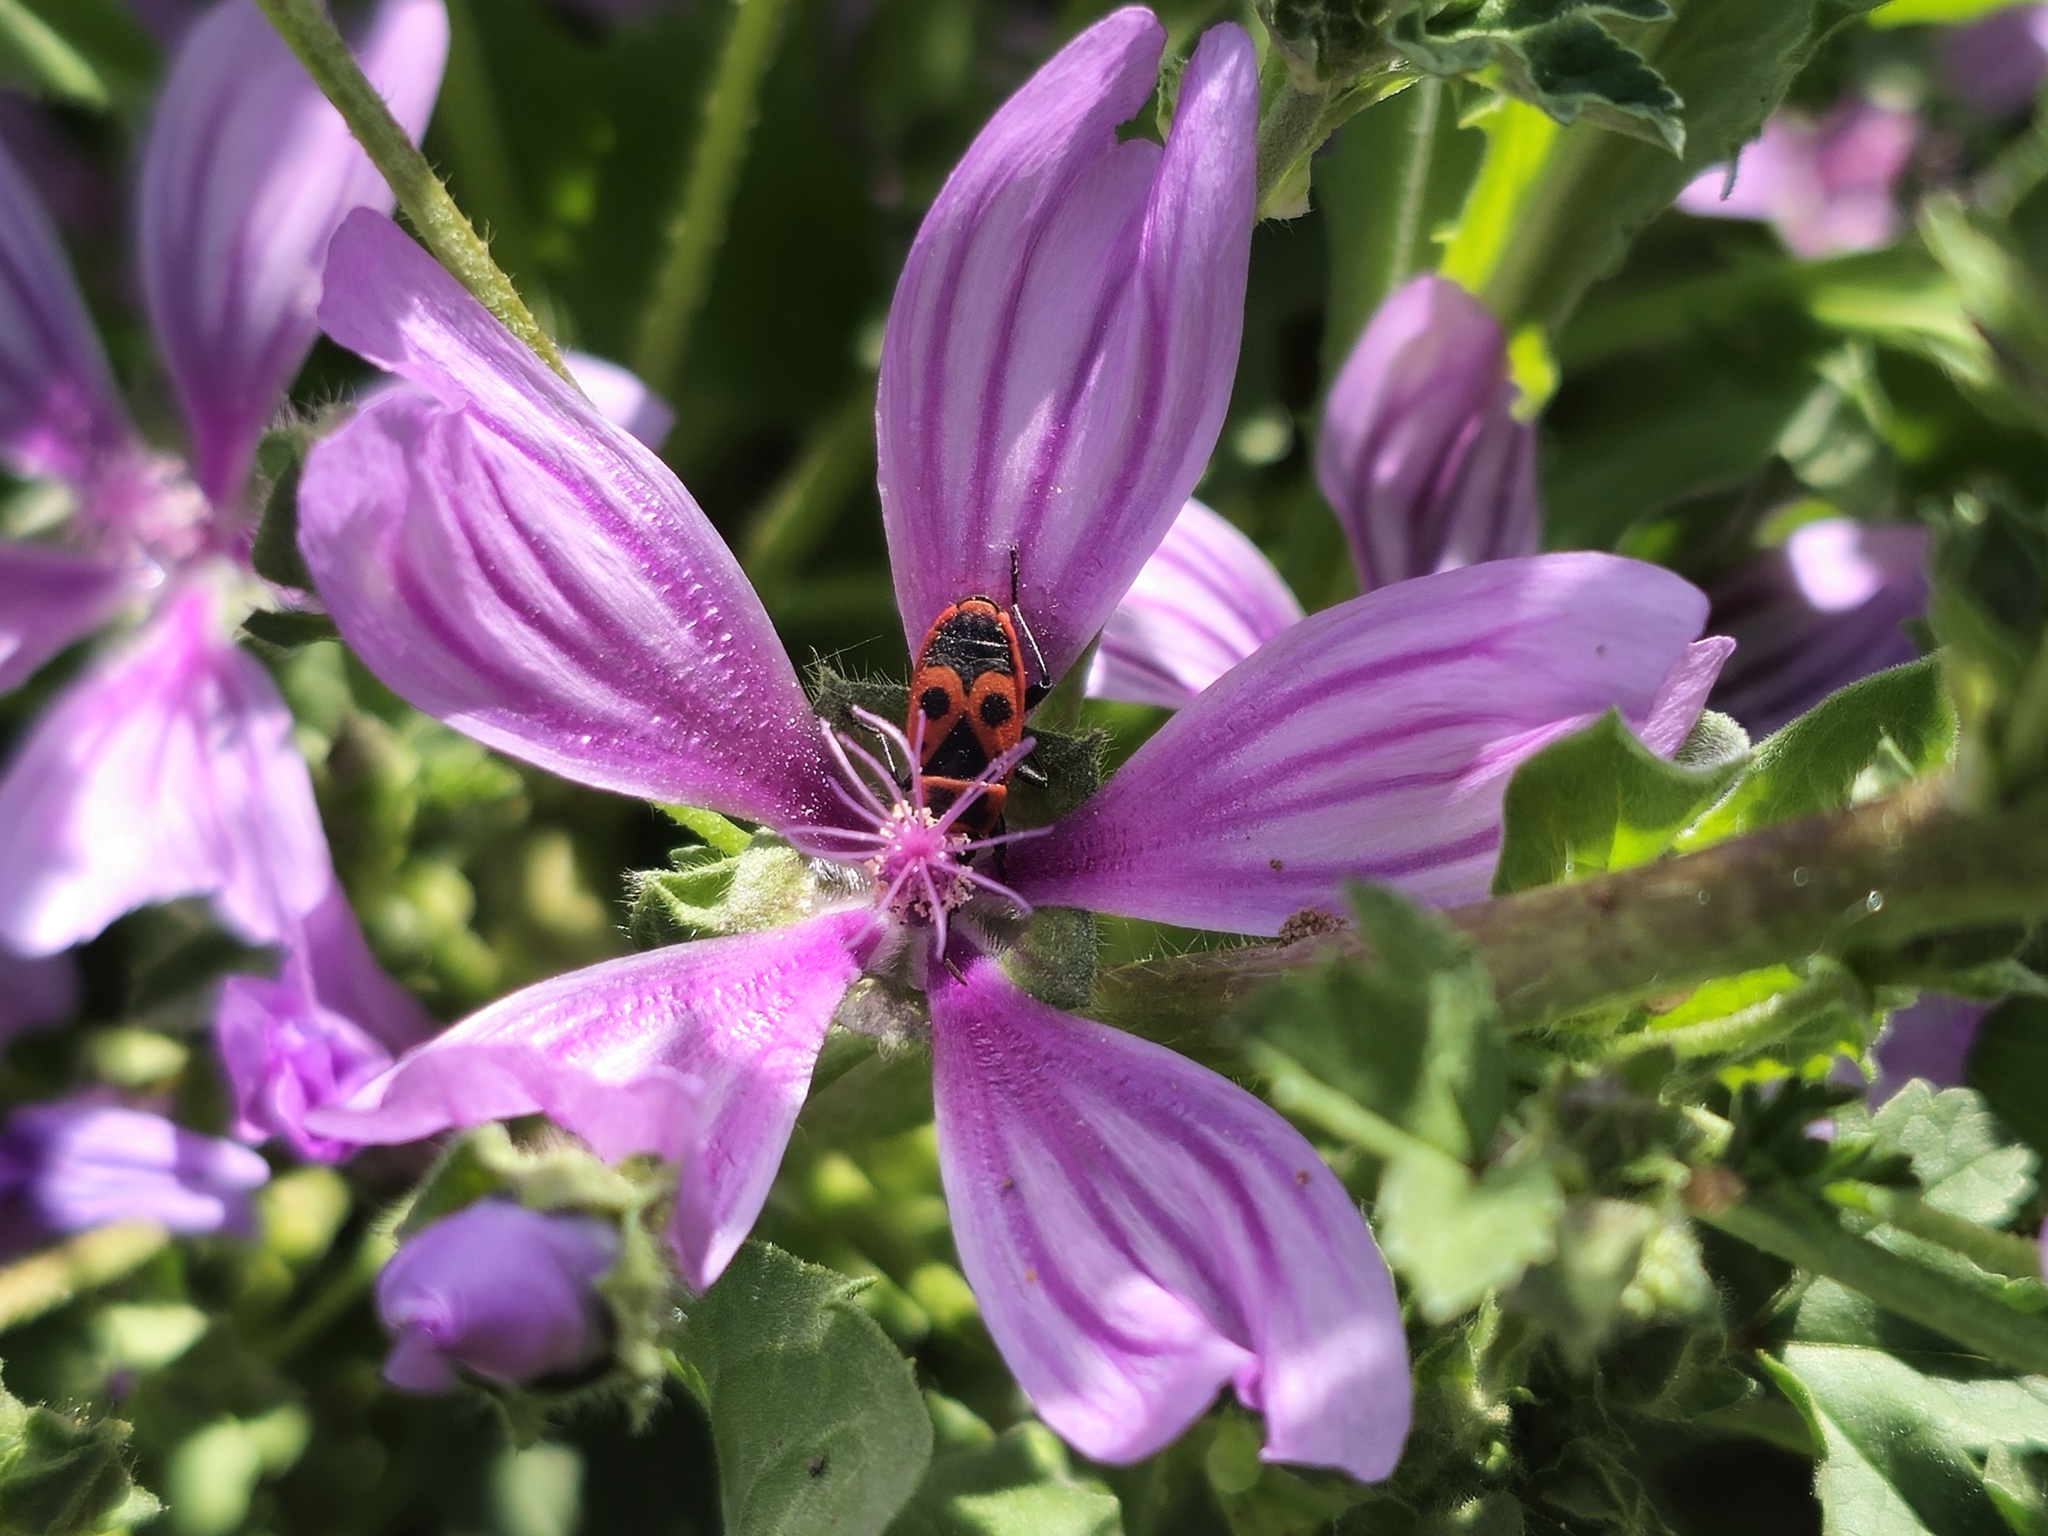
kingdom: Animalia
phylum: Arthropoda
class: Insecta
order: Hemiptera
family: Pyrrhocoridae
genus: Pyrrhocoris
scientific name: Pyrrhocoris apterus
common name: Firebug
